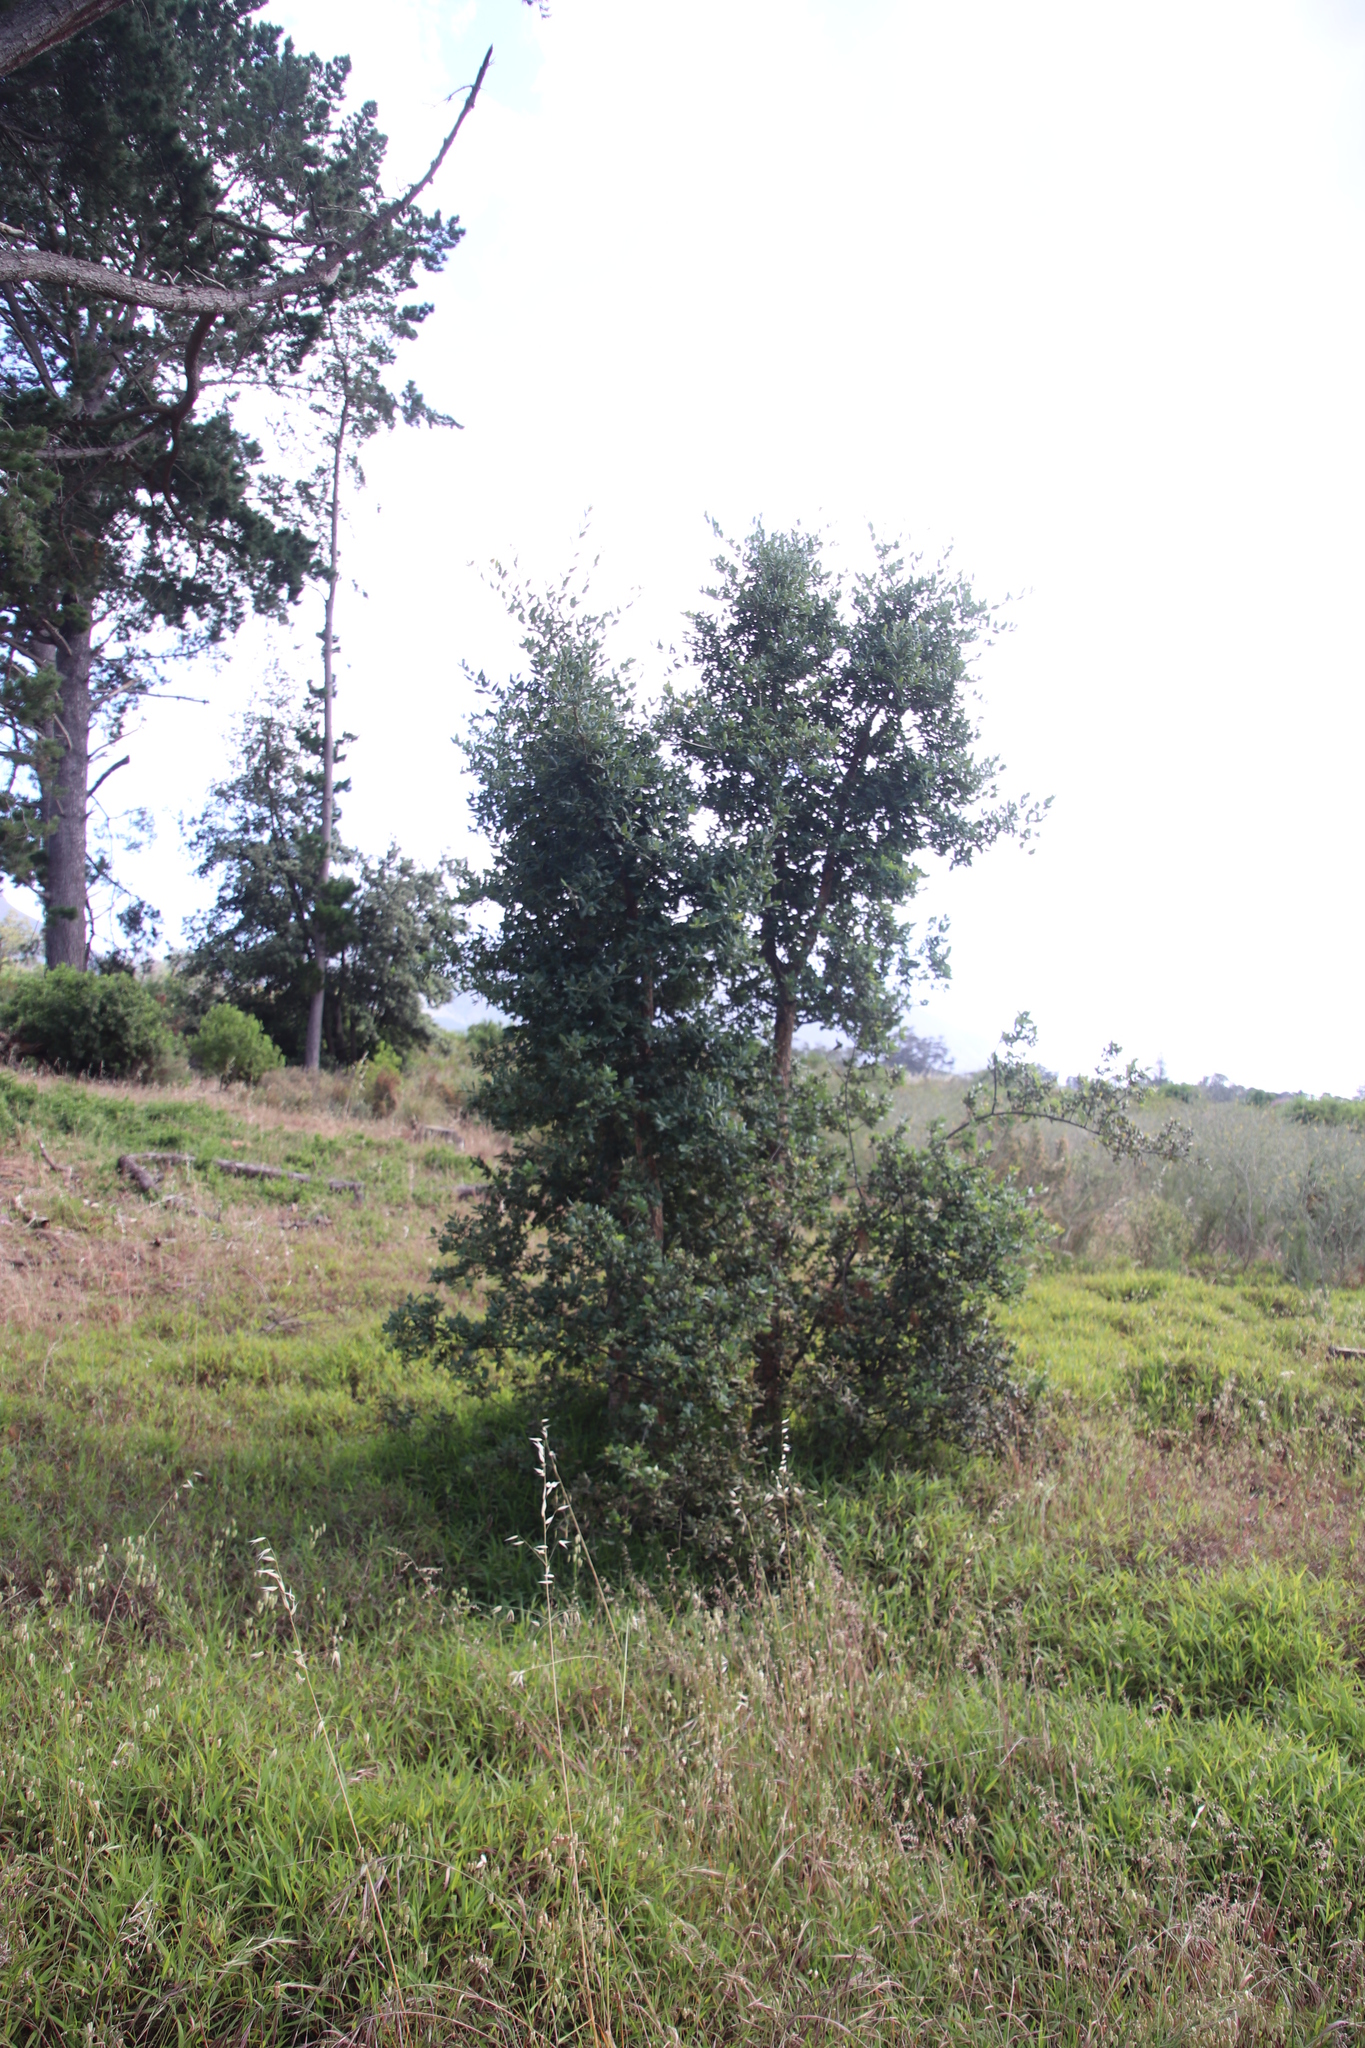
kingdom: Plantae
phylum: Tracheophyta
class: Magnoliopsida
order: Fagales
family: Fagaceae
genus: Quercus
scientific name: Quercus suber
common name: Cork oak
